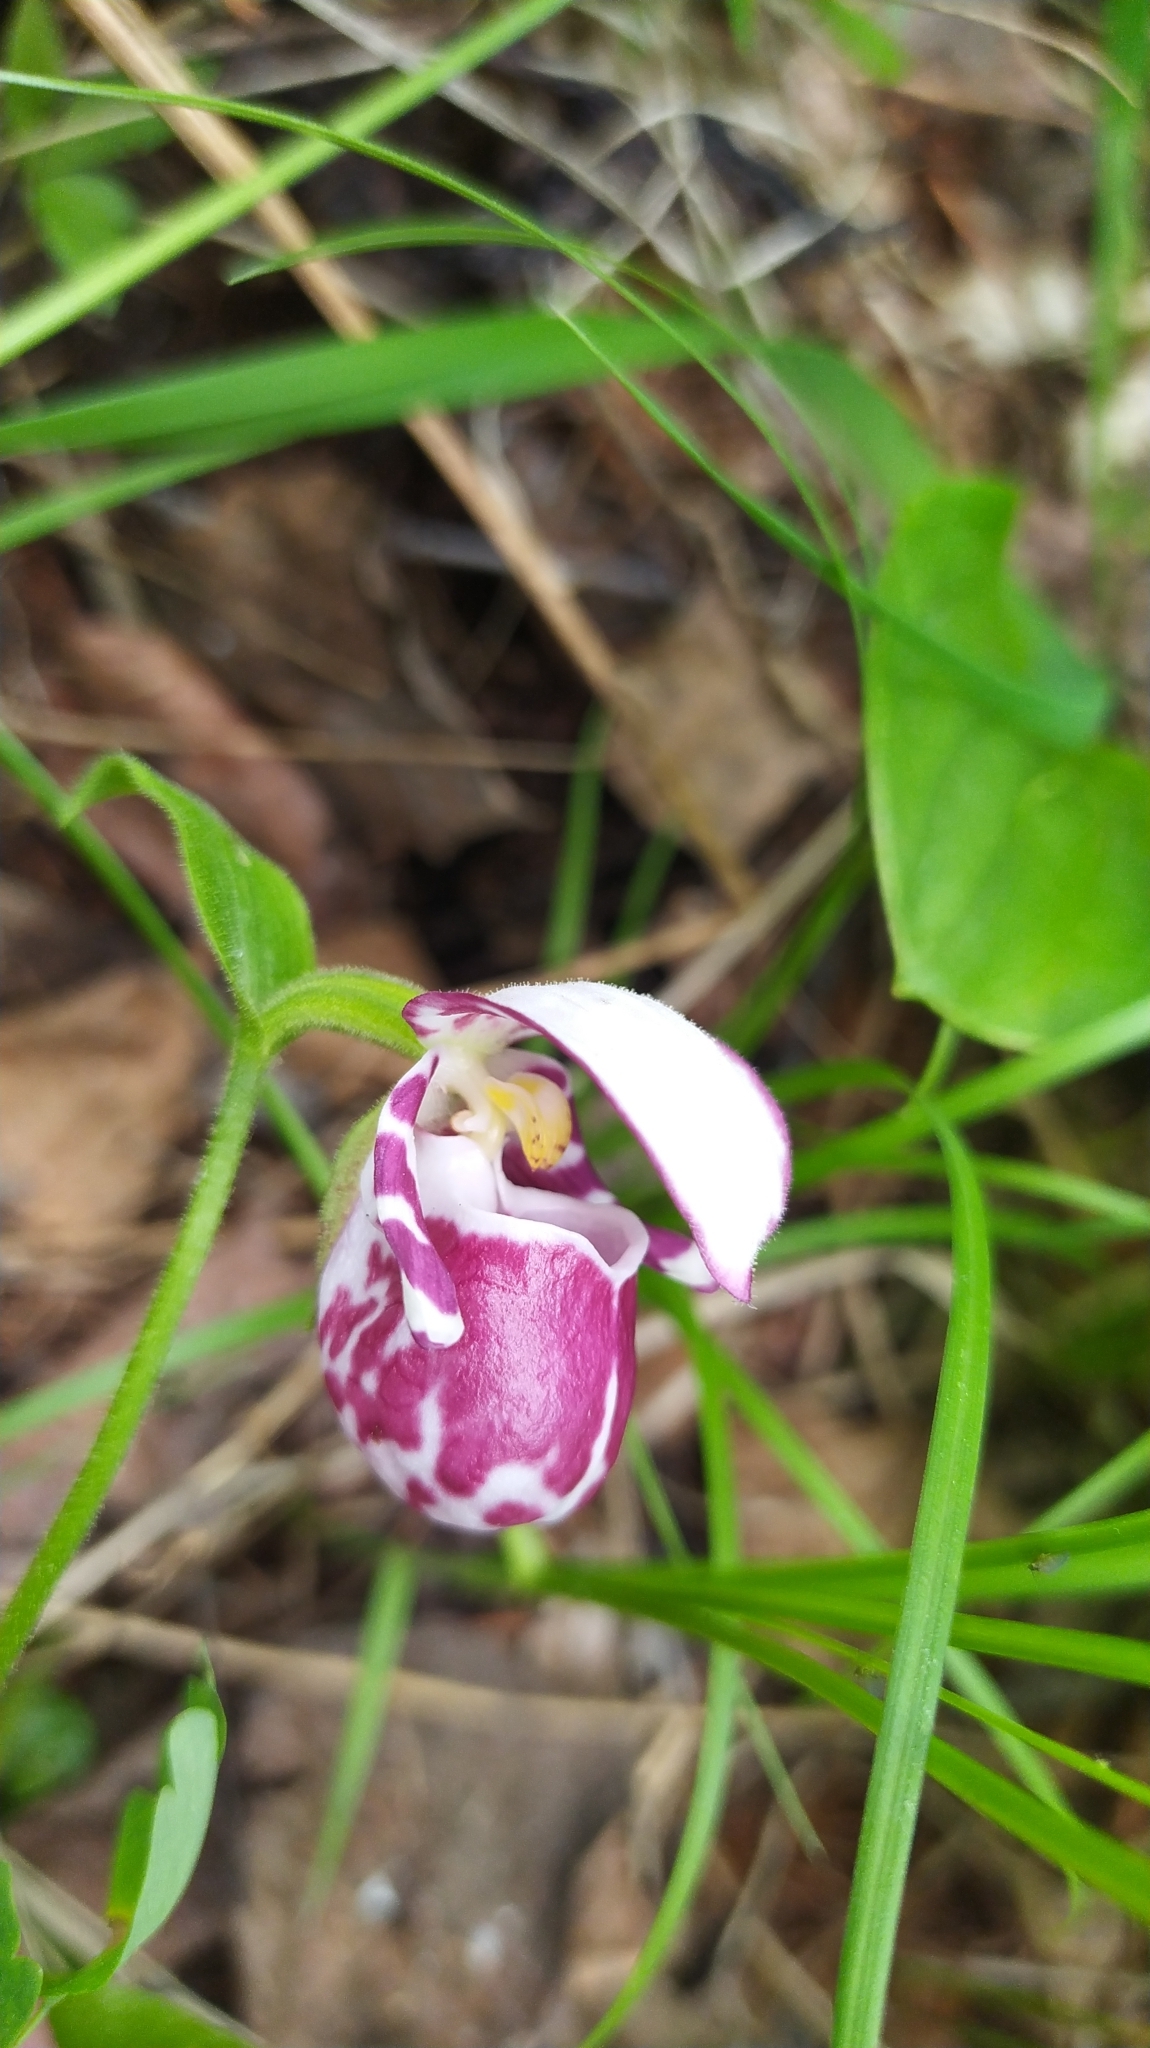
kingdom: Plantae
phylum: Tracheophyta
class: Liliopsida
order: Asparagales
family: Orchidaceae
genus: Cypripedium
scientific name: Cypripedium guttatum
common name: Pink lady slipper
